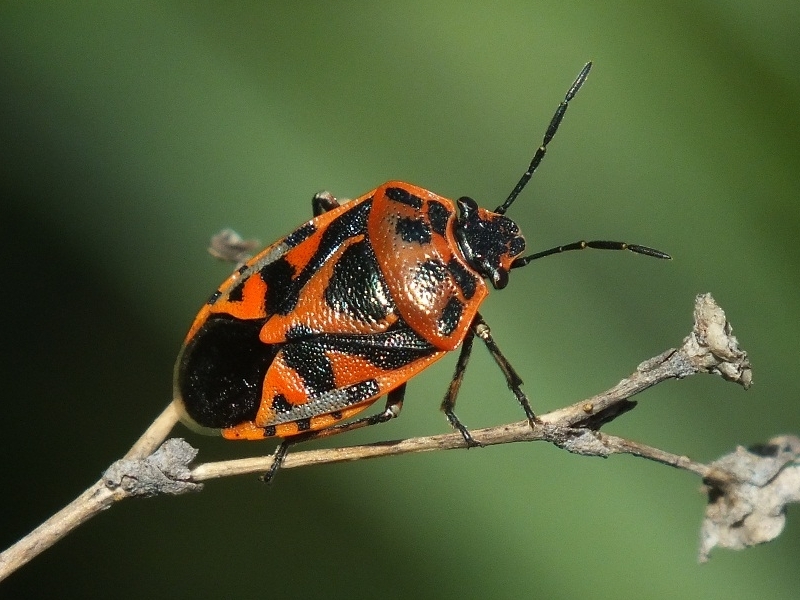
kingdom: Animalia
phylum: Arthropoda
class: Insecta
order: Hemiptera
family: Pentatomidae
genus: Eurydema
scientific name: Eurydema ornata
